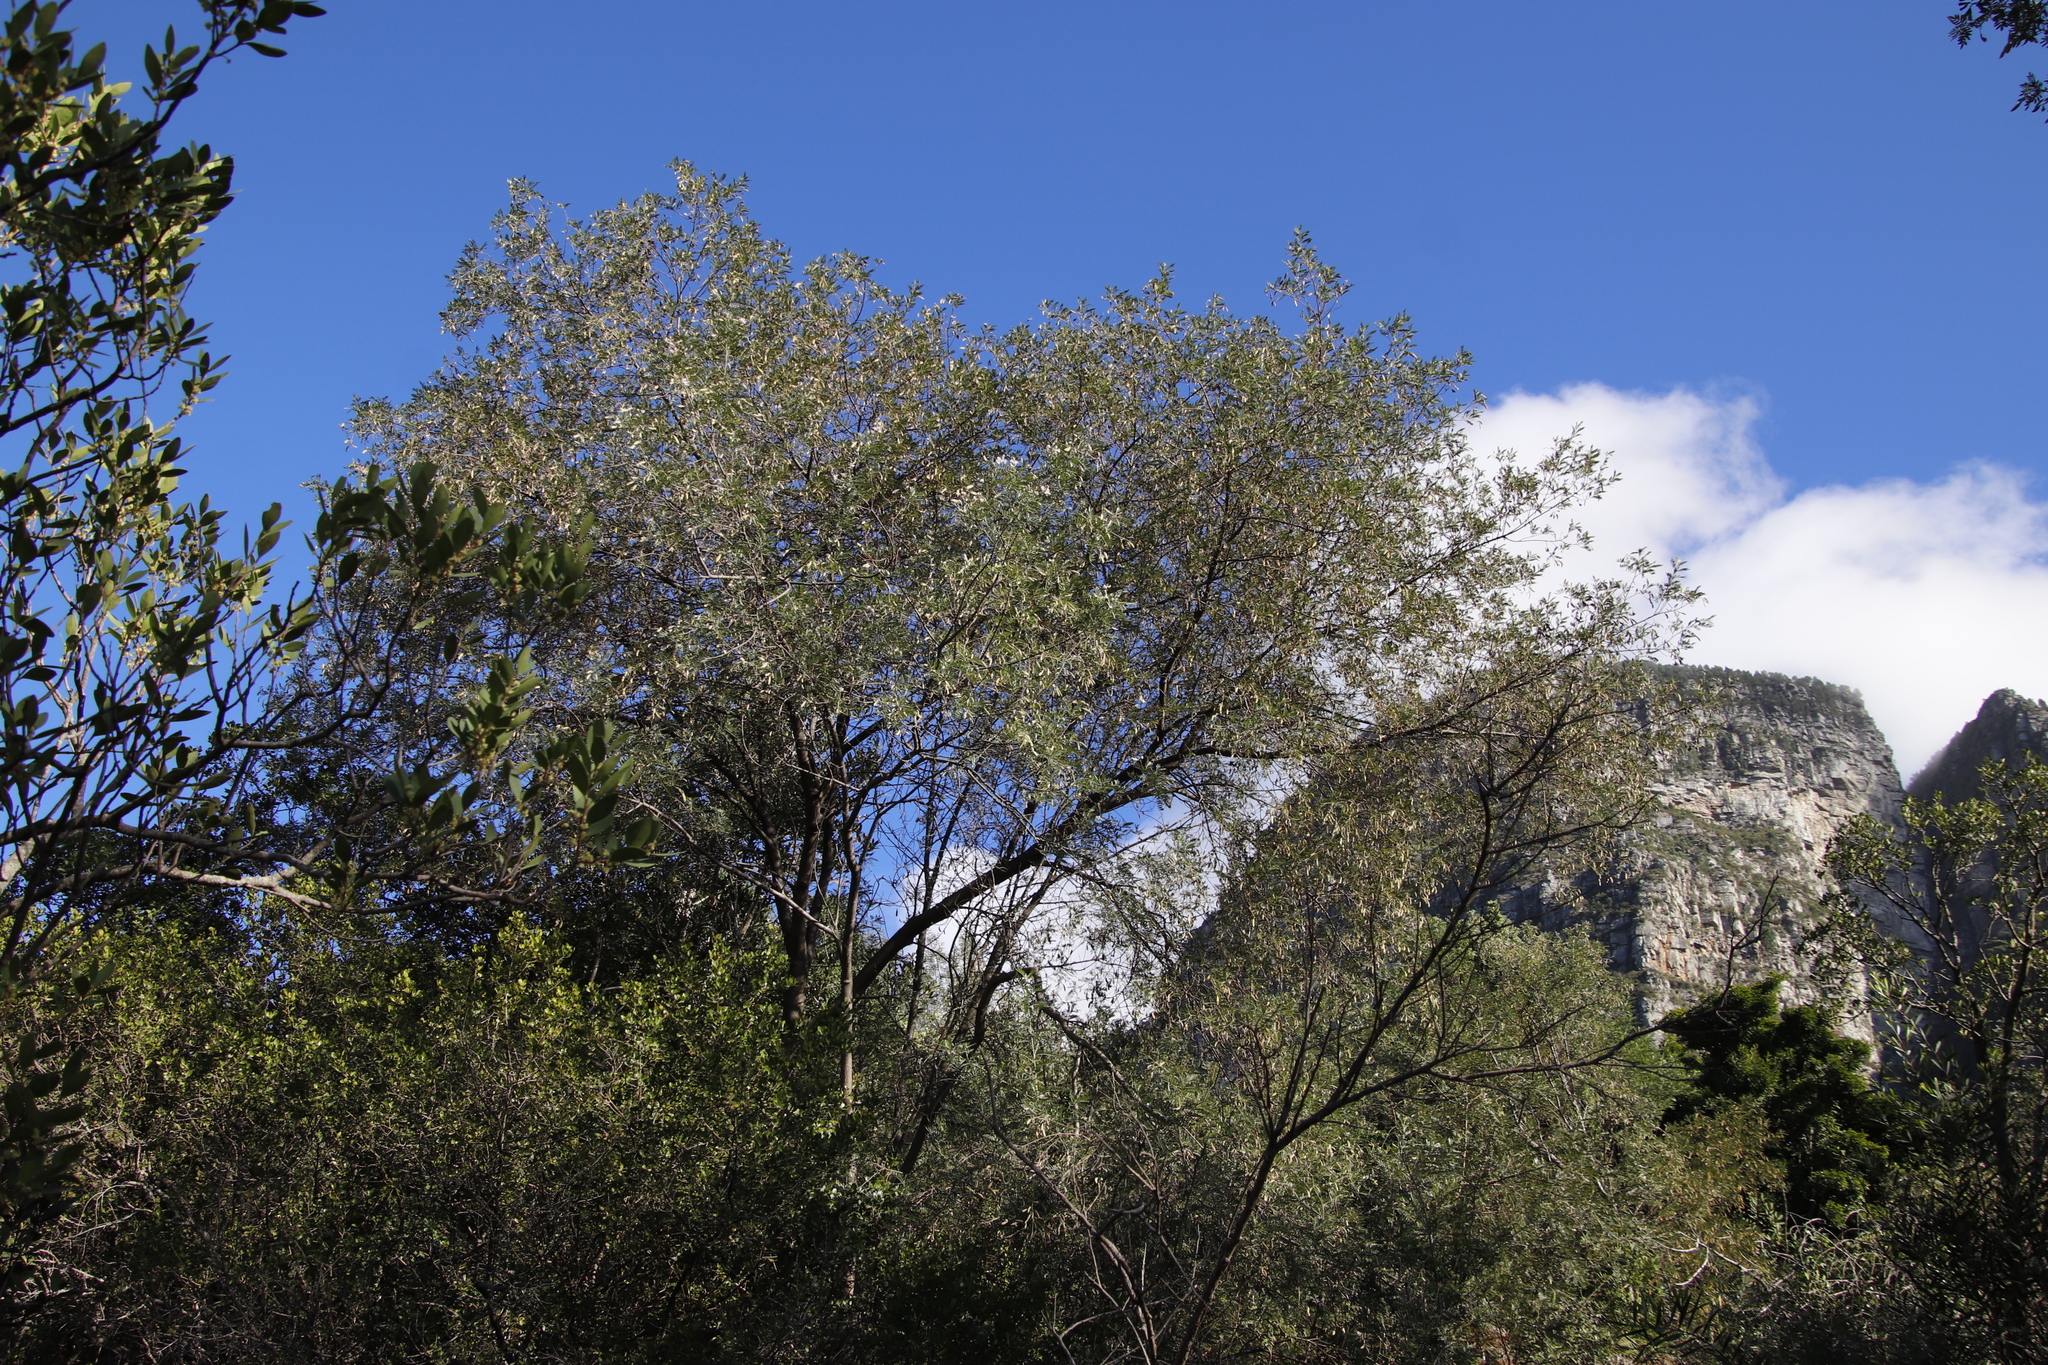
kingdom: Plantae
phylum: Tracheophyta
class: Magnoliopsida
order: Fabales
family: Fabaceae
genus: Virgilia
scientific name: Virgilia oroboides
